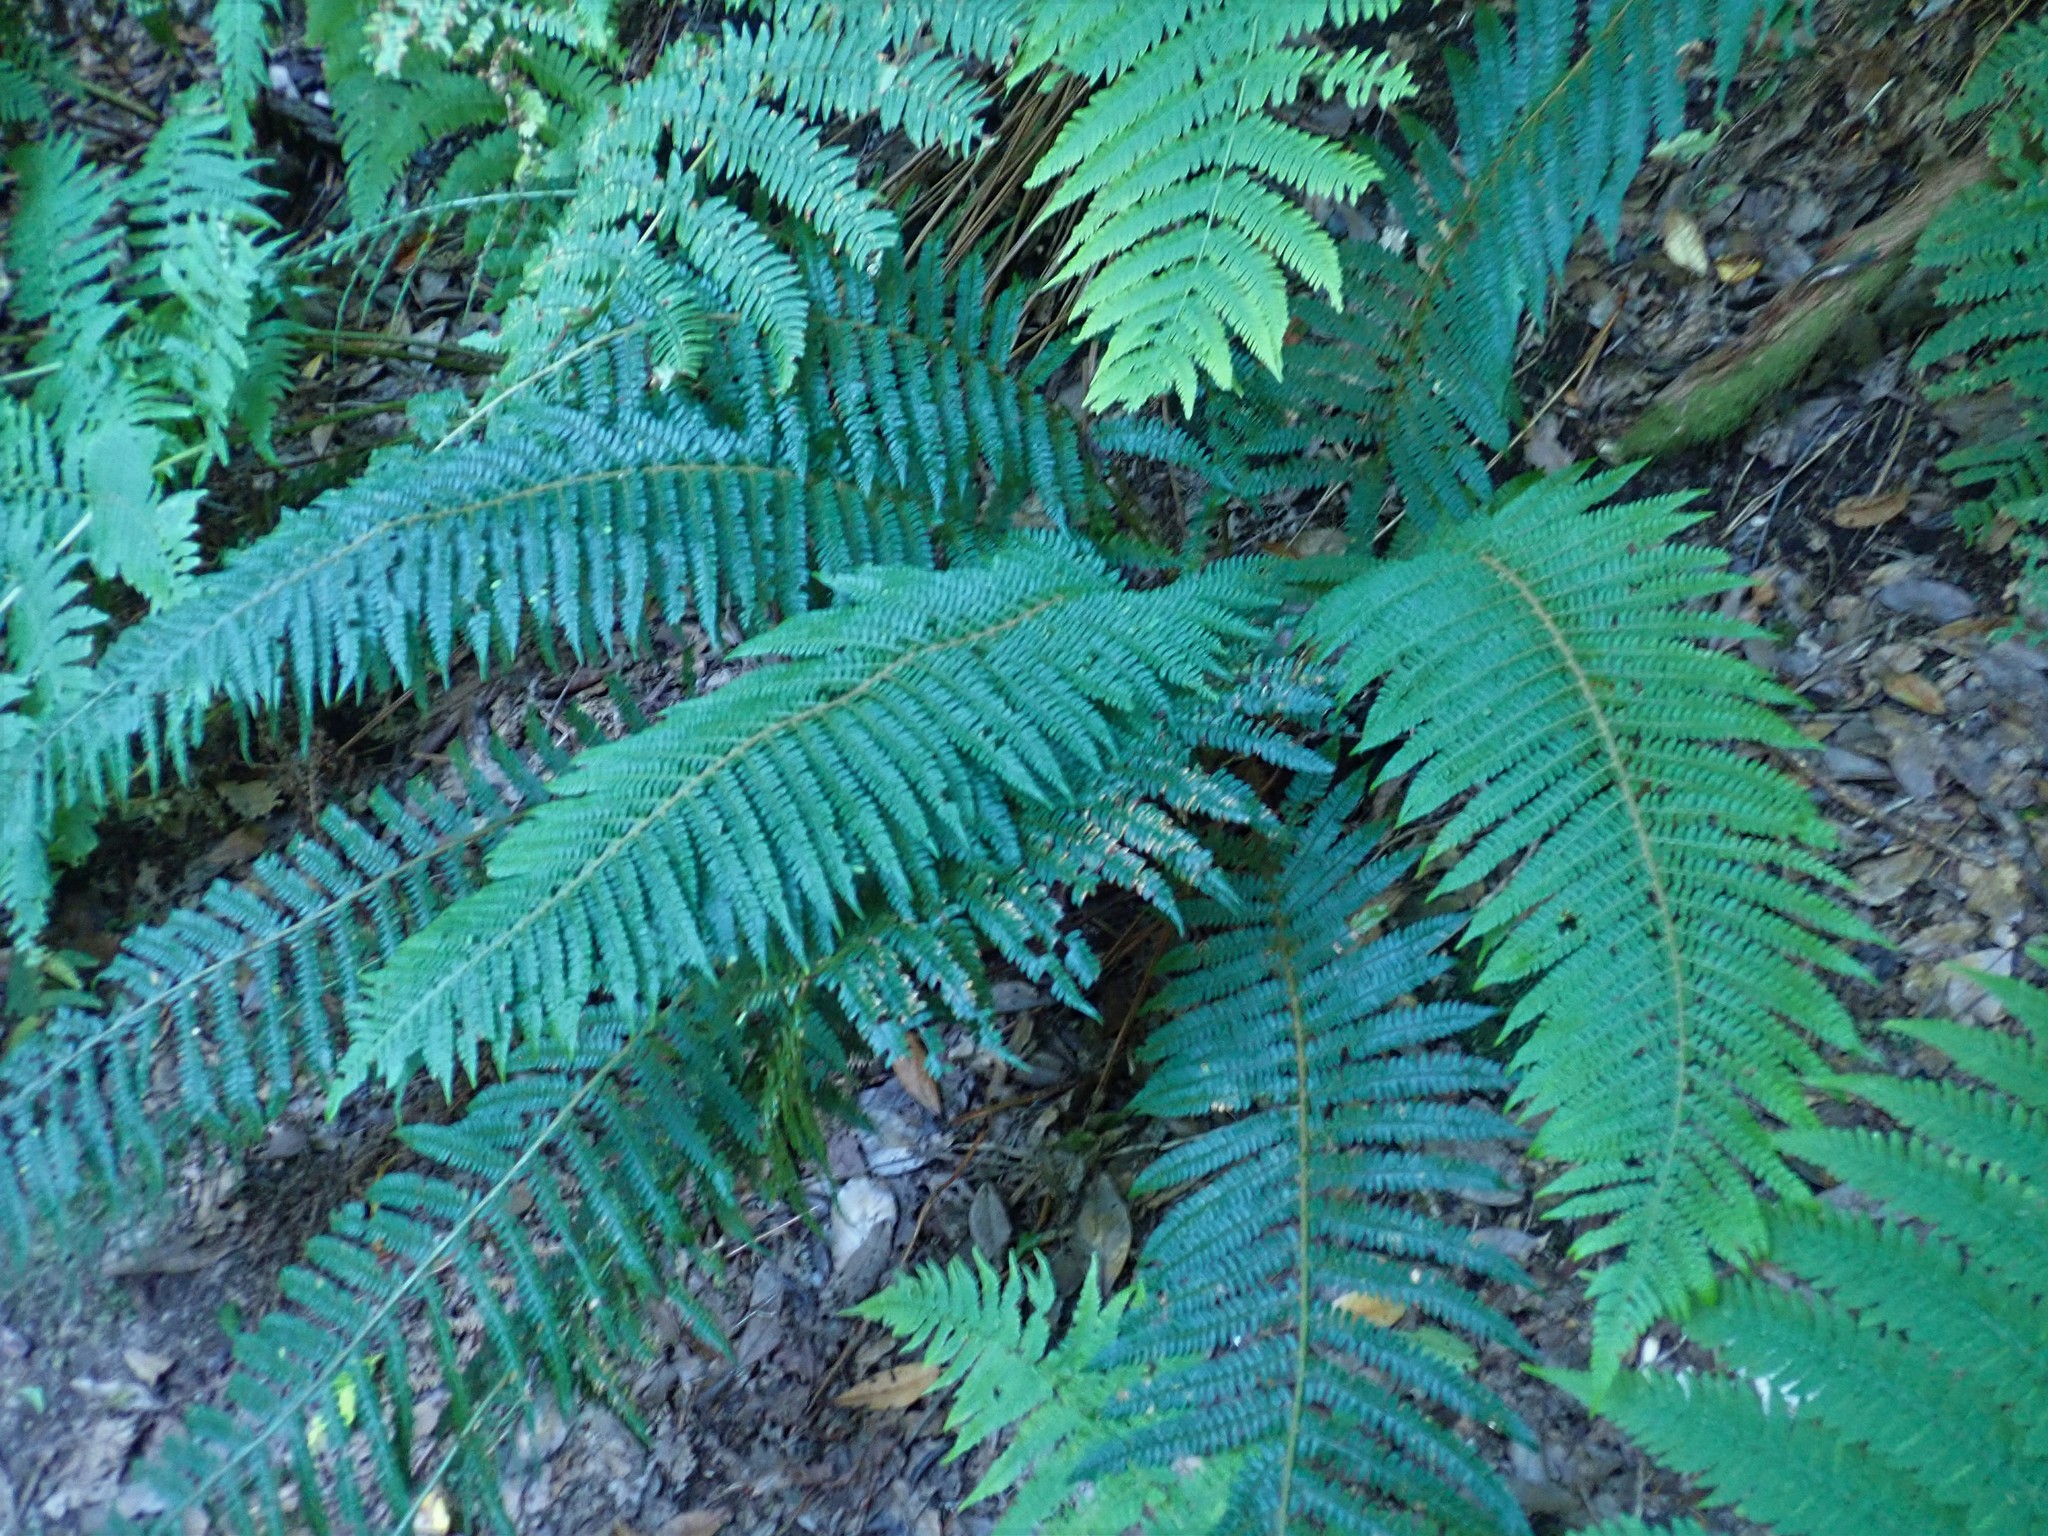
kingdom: Plantae
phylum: Tracheophyta
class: Polypodiopsida
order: Polypodiales
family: Dryopteridaceae
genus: Polystichum
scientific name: Polystichum setiferum
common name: Soft shield-fern
